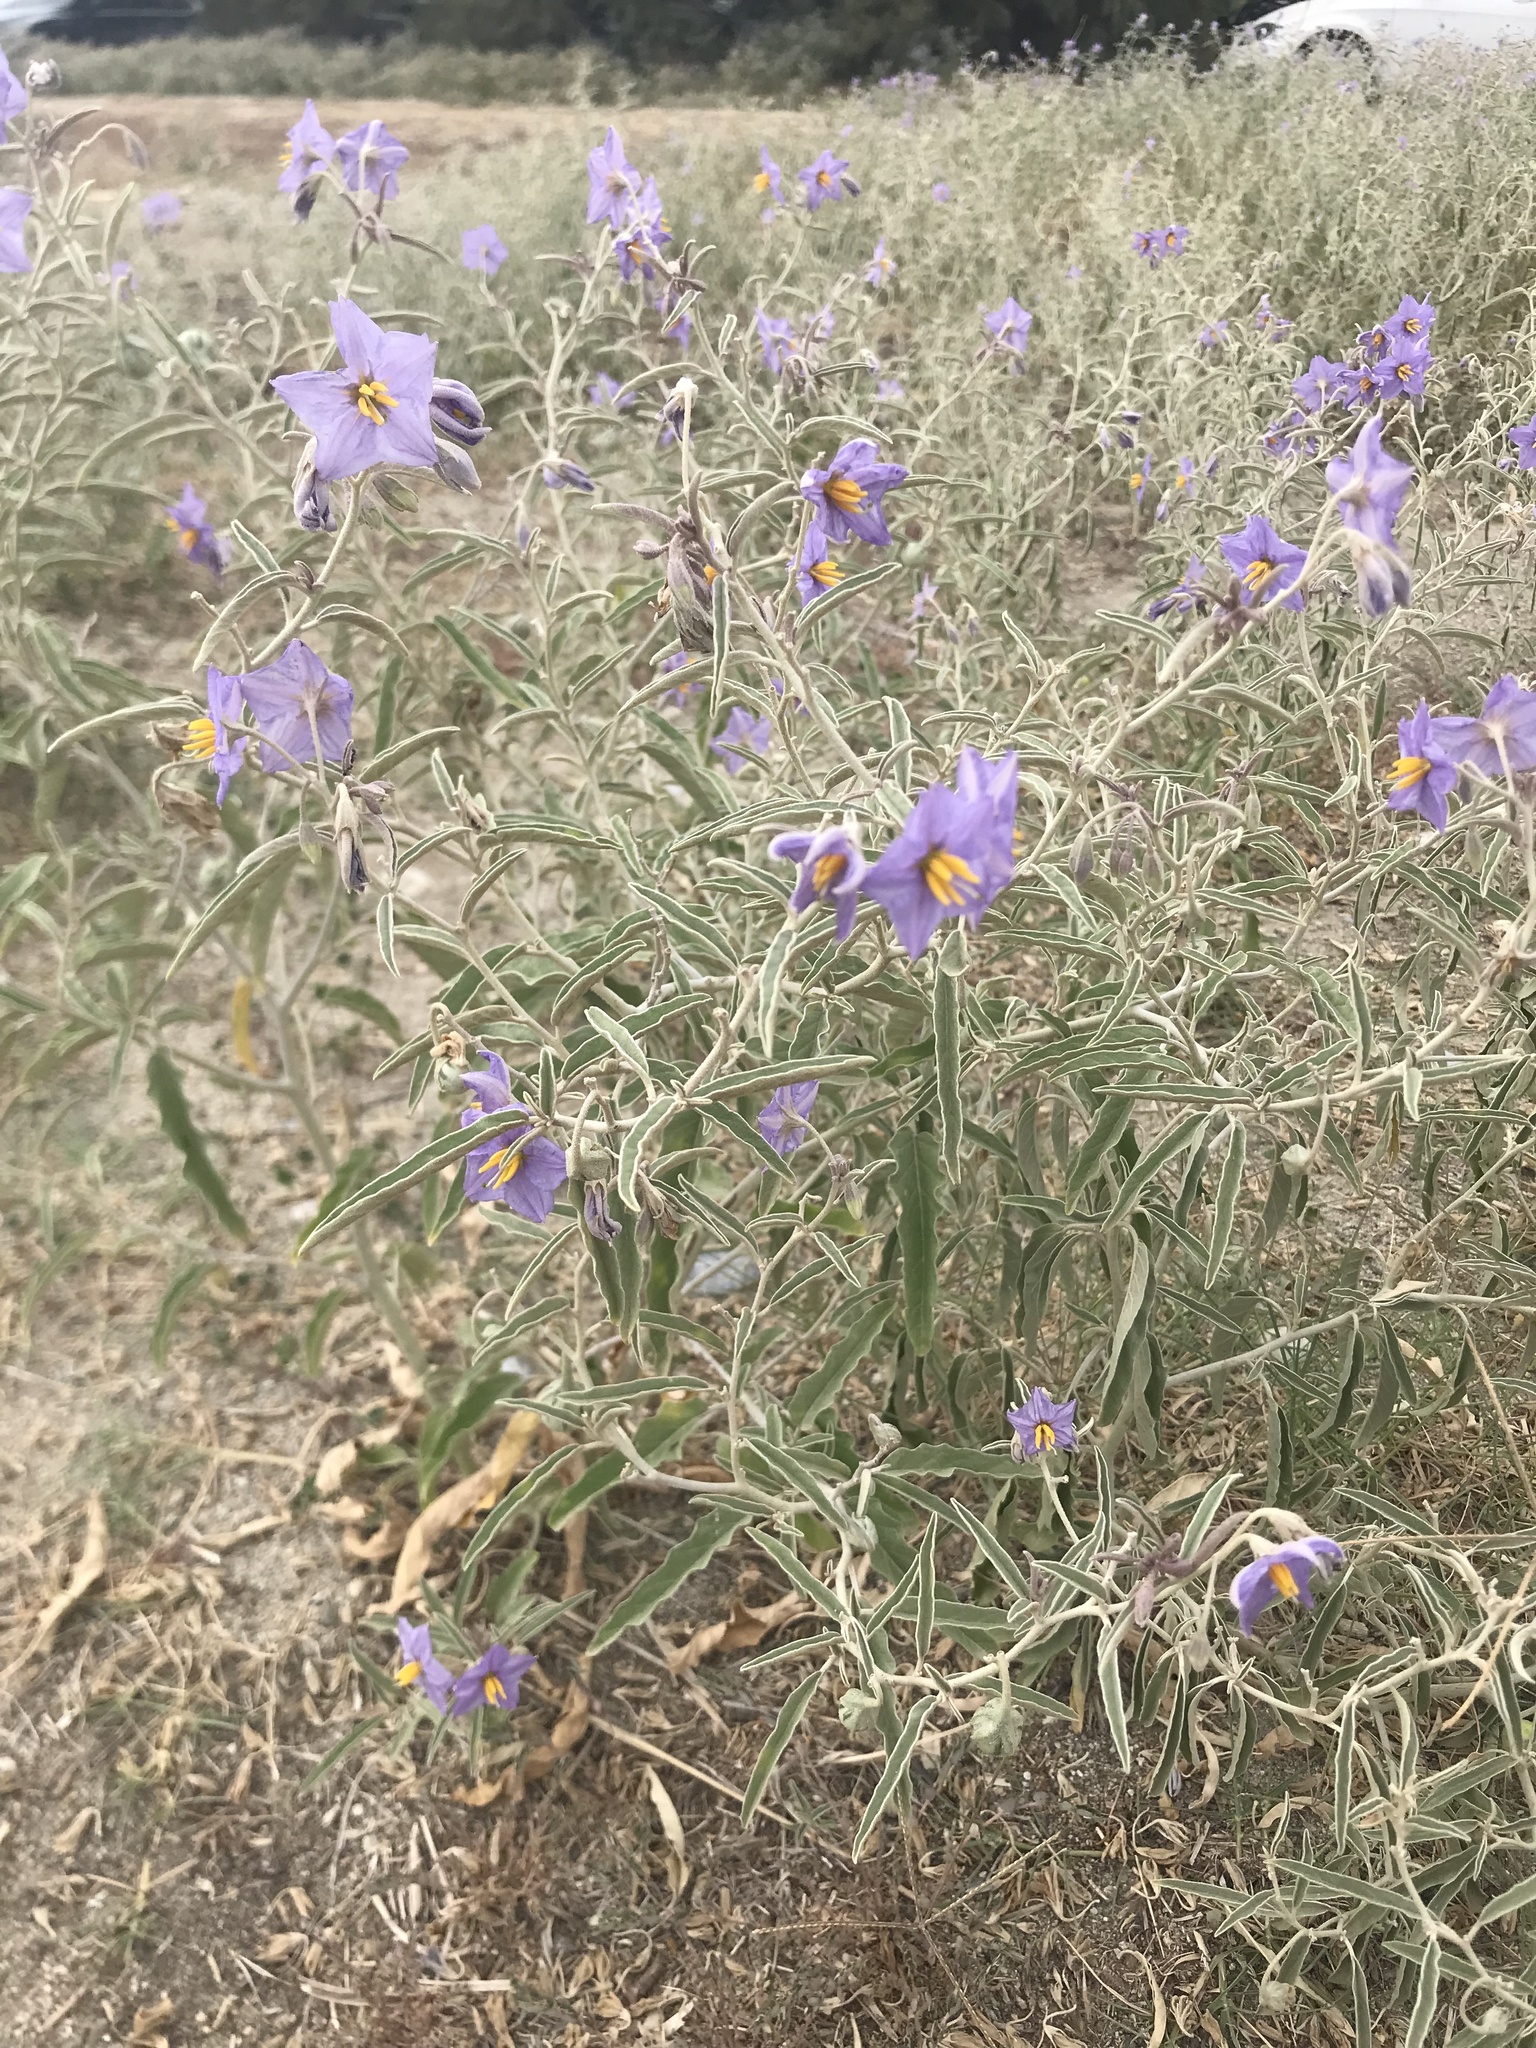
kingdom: Plantae
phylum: Tracheophyta
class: Magnoliopsida
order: Solanales
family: Solanaceae
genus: Solanum
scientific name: Solanum elaeagnifolium
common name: Silverleaf nightshade
